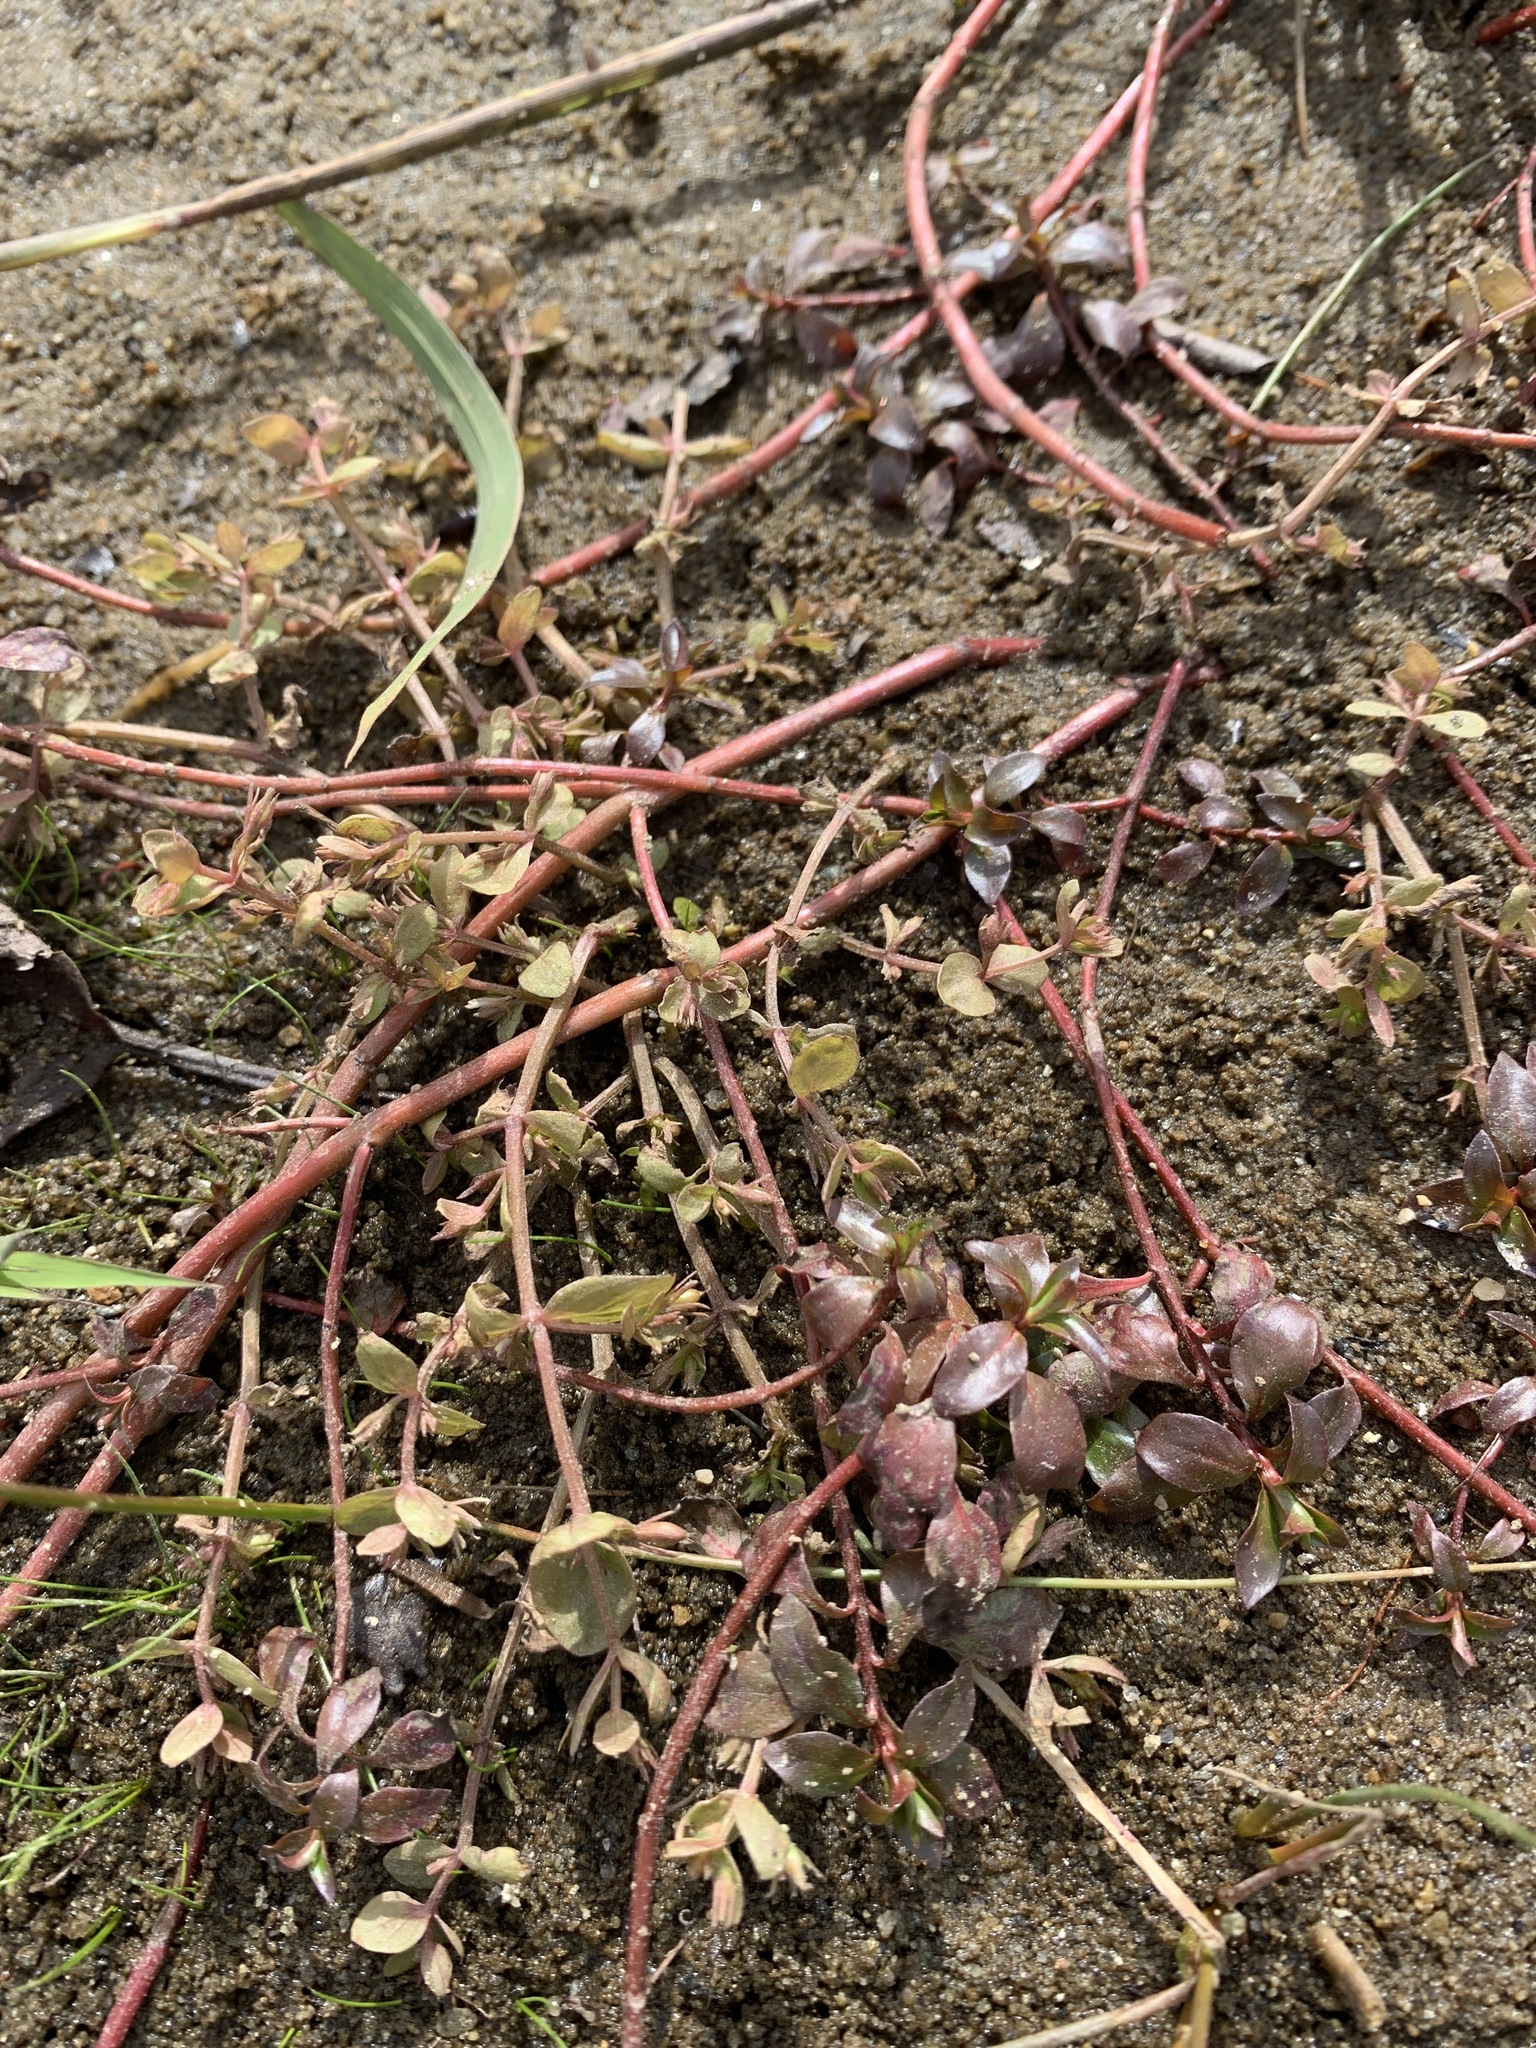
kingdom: Plantae
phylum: Tracheophyta
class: Magnoliopsida
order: Myrtales
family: Onagraceae
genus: Ludwigia
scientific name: Ludwigia palustris
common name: Hampshire-purslane
